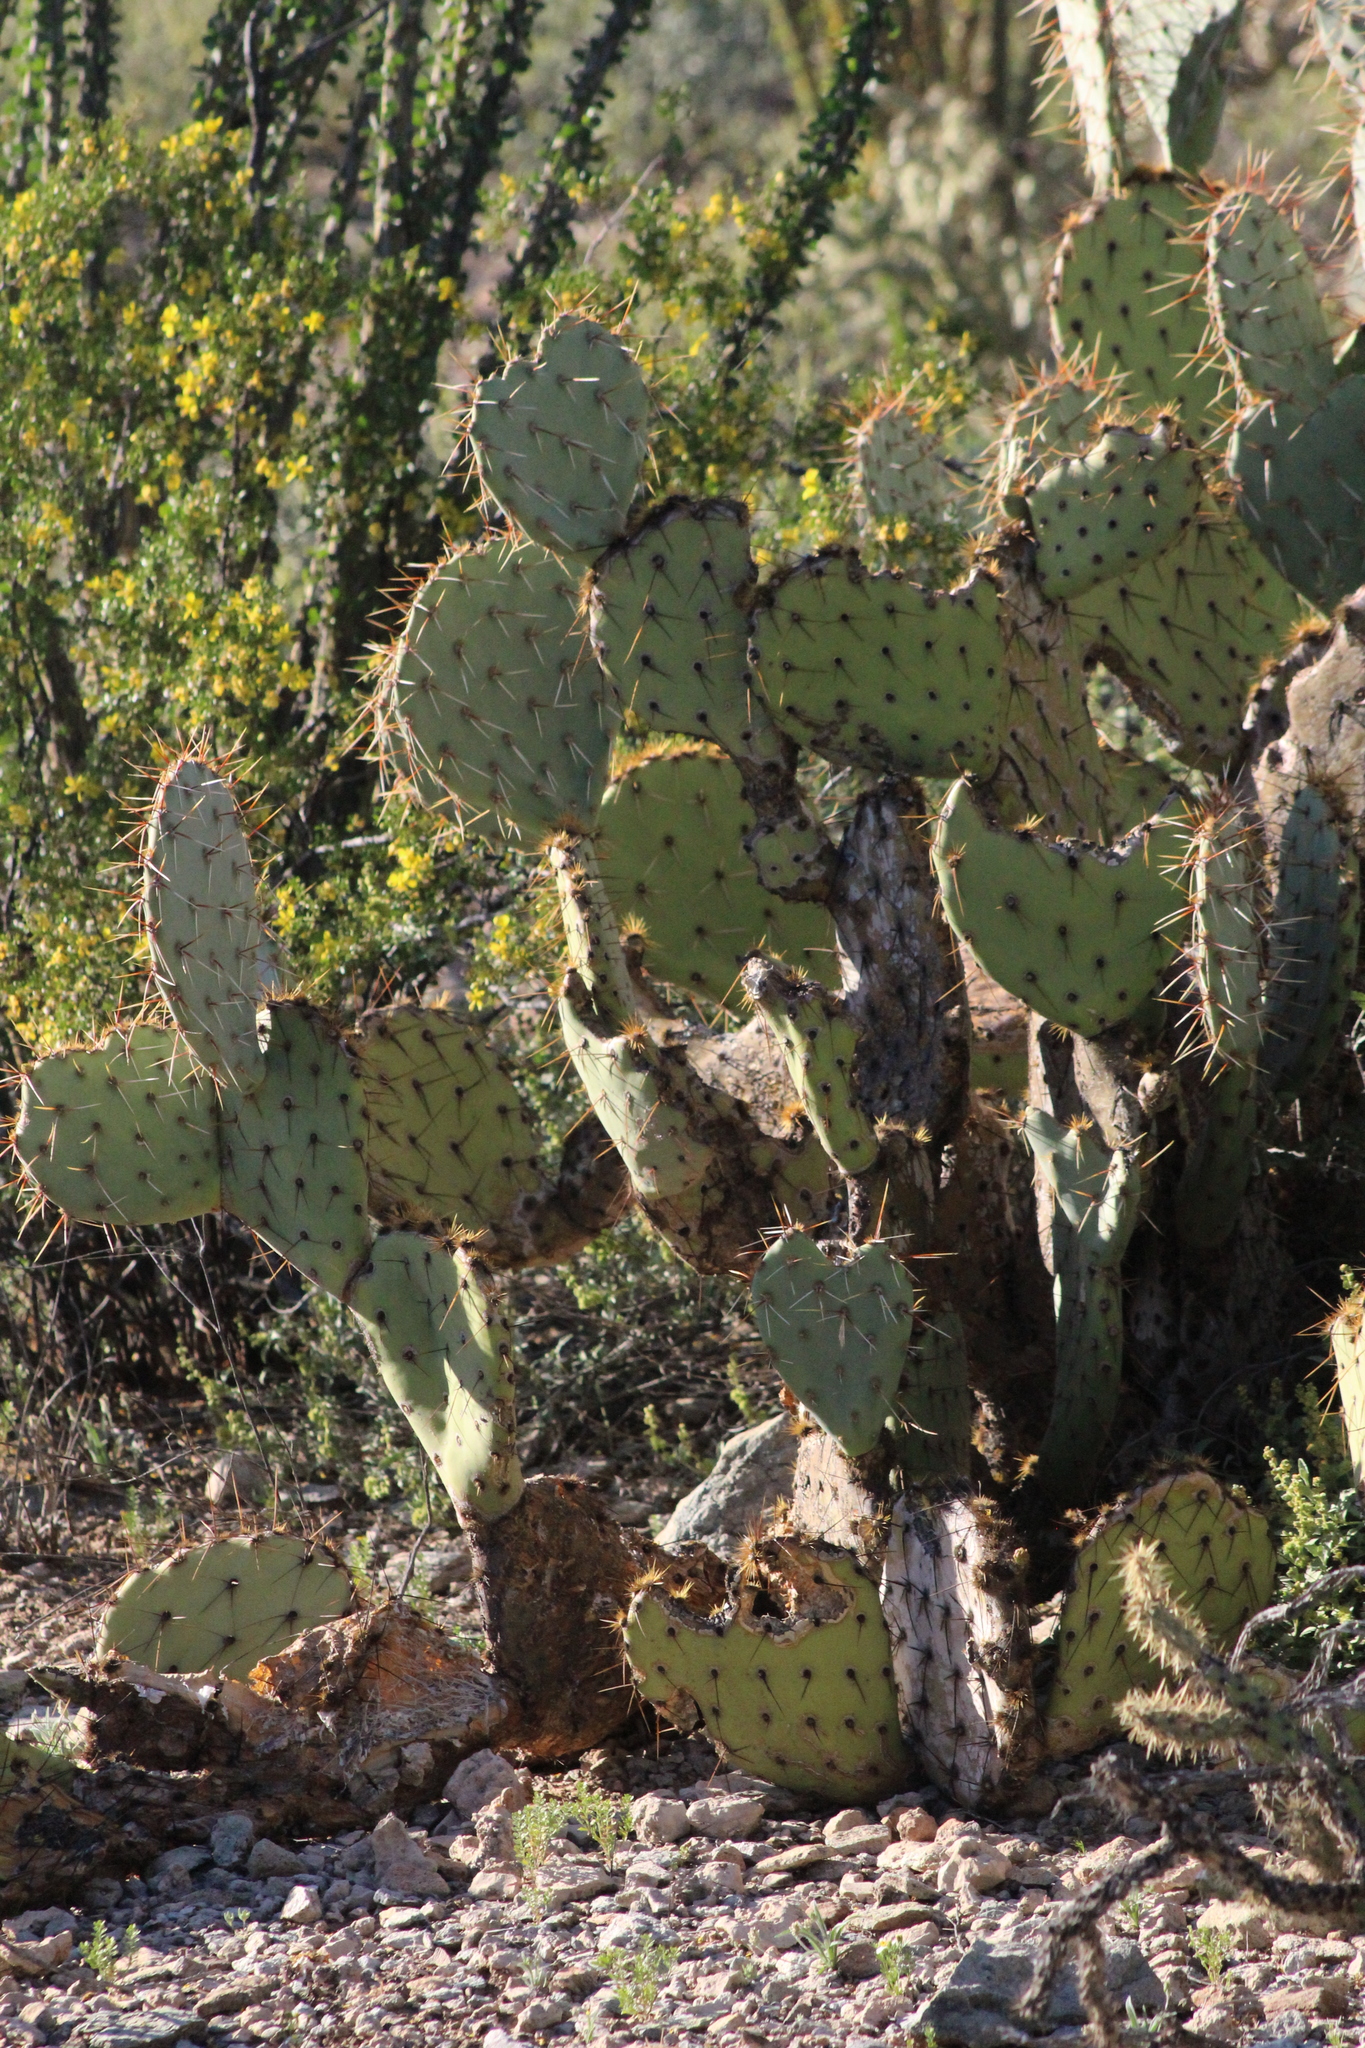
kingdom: Plantae
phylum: Tracheophyta
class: Magnoliopsida
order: Caryophyllales
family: Cactaceae
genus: Opuntia
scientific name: Opuntia engelmannii
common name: Cactus-apple
